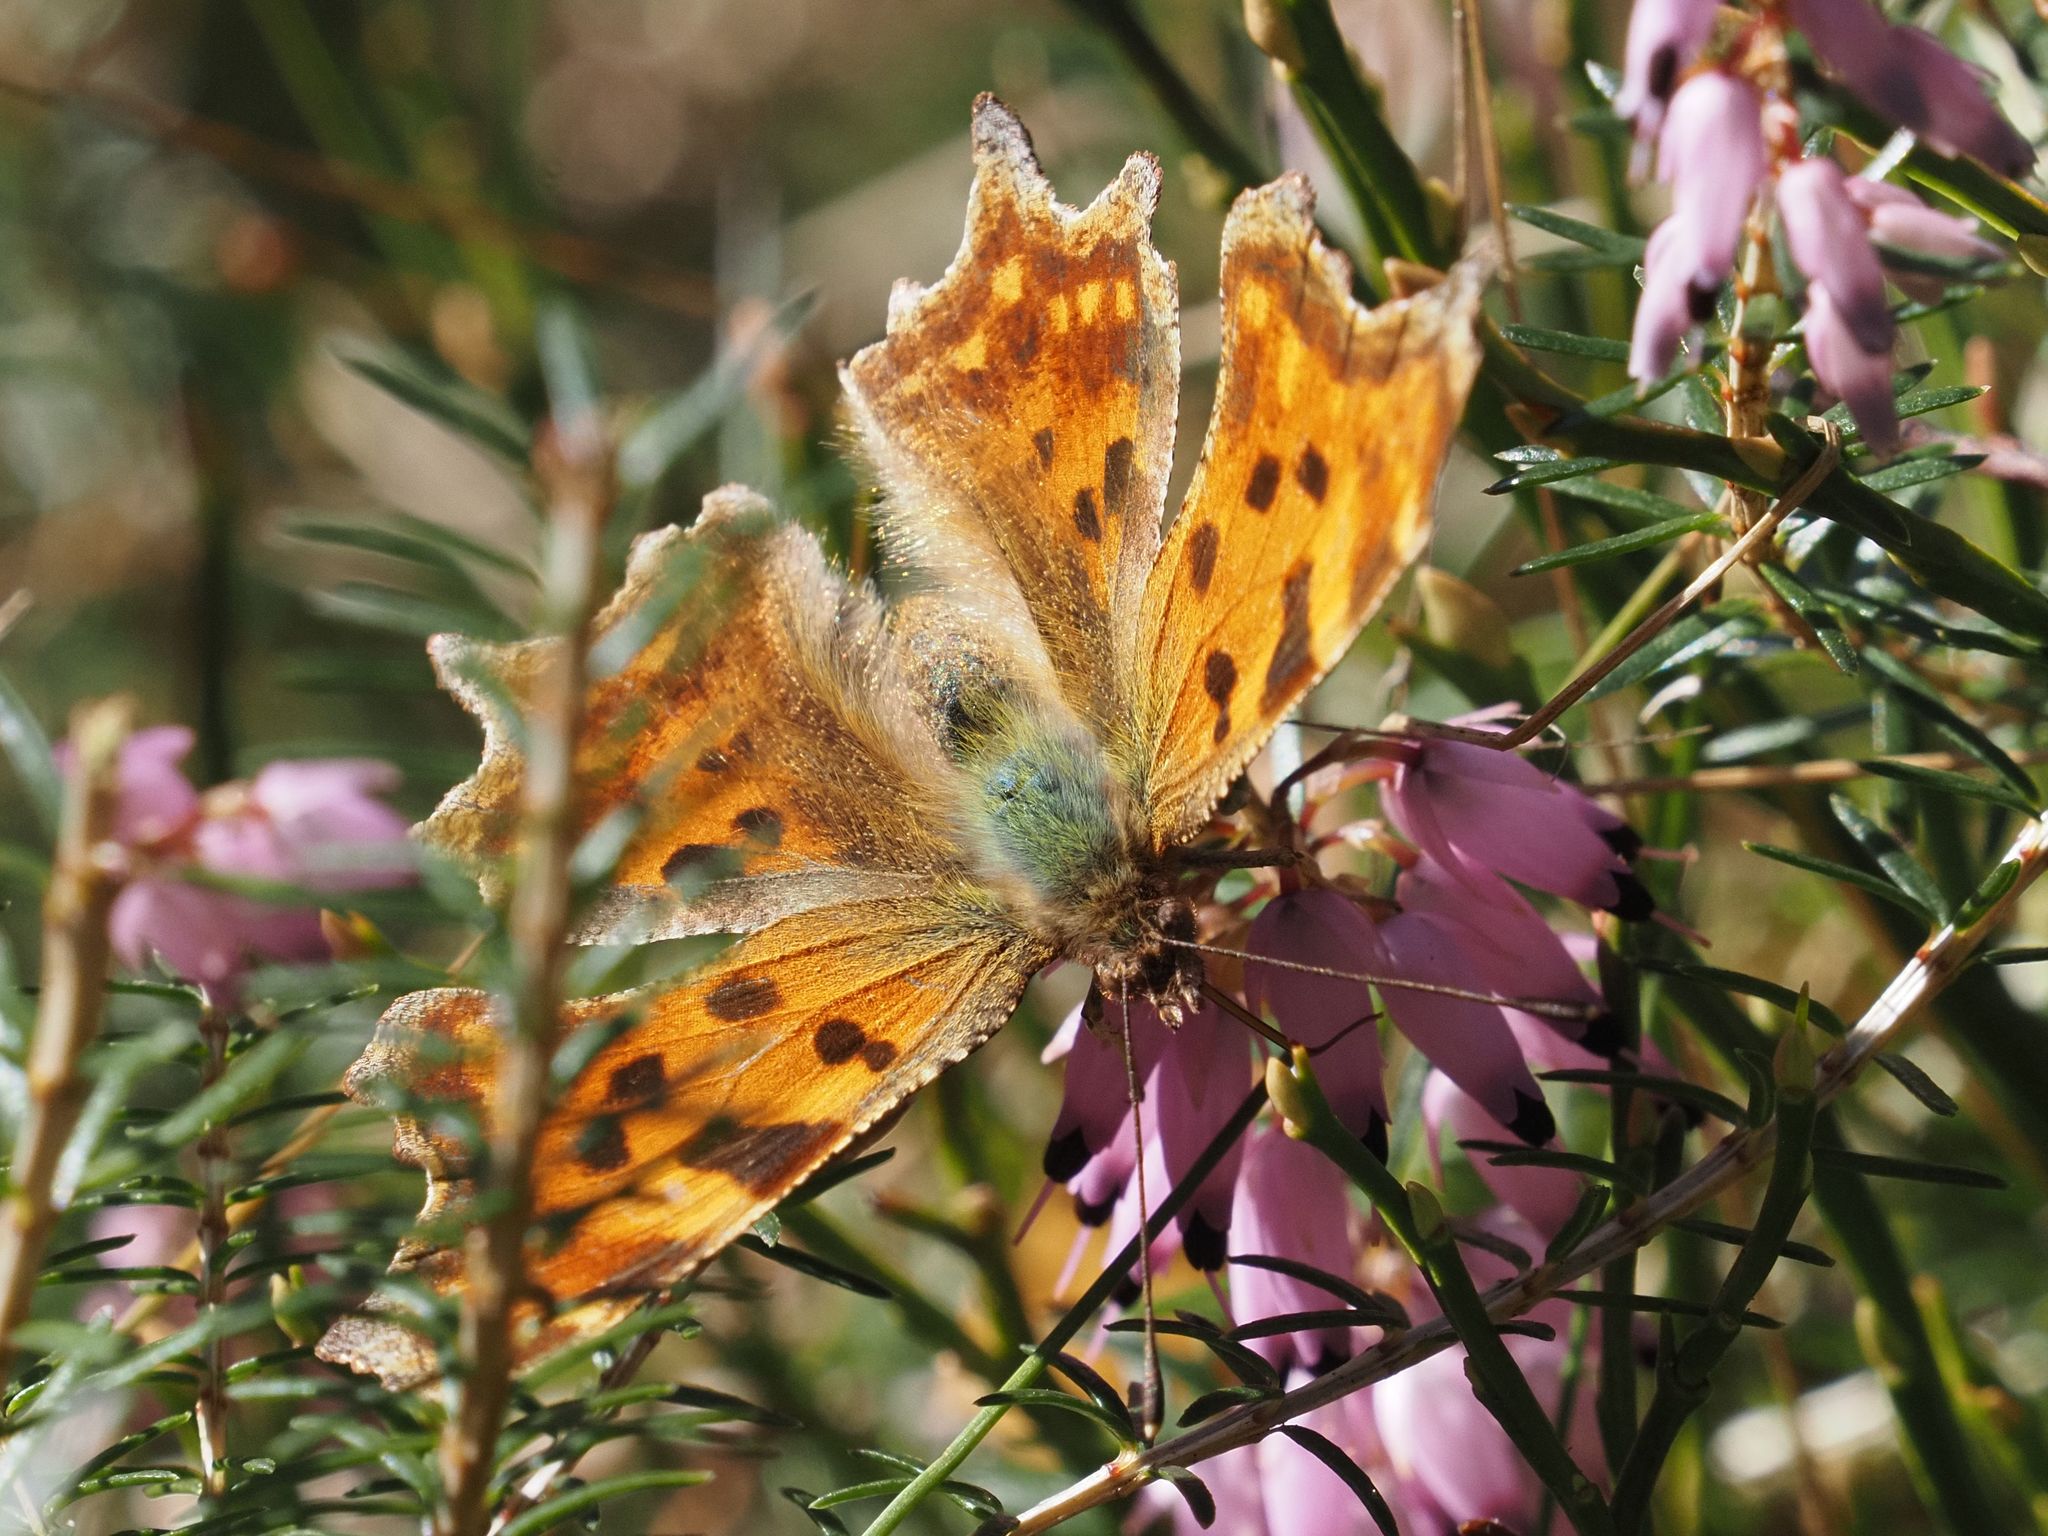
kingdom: Animalia
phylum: Arthropoda
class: Insecta
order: Lepidoptera
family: Nymphalidae
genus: Polygonia
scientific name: Polygonia c-album
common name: Comma
